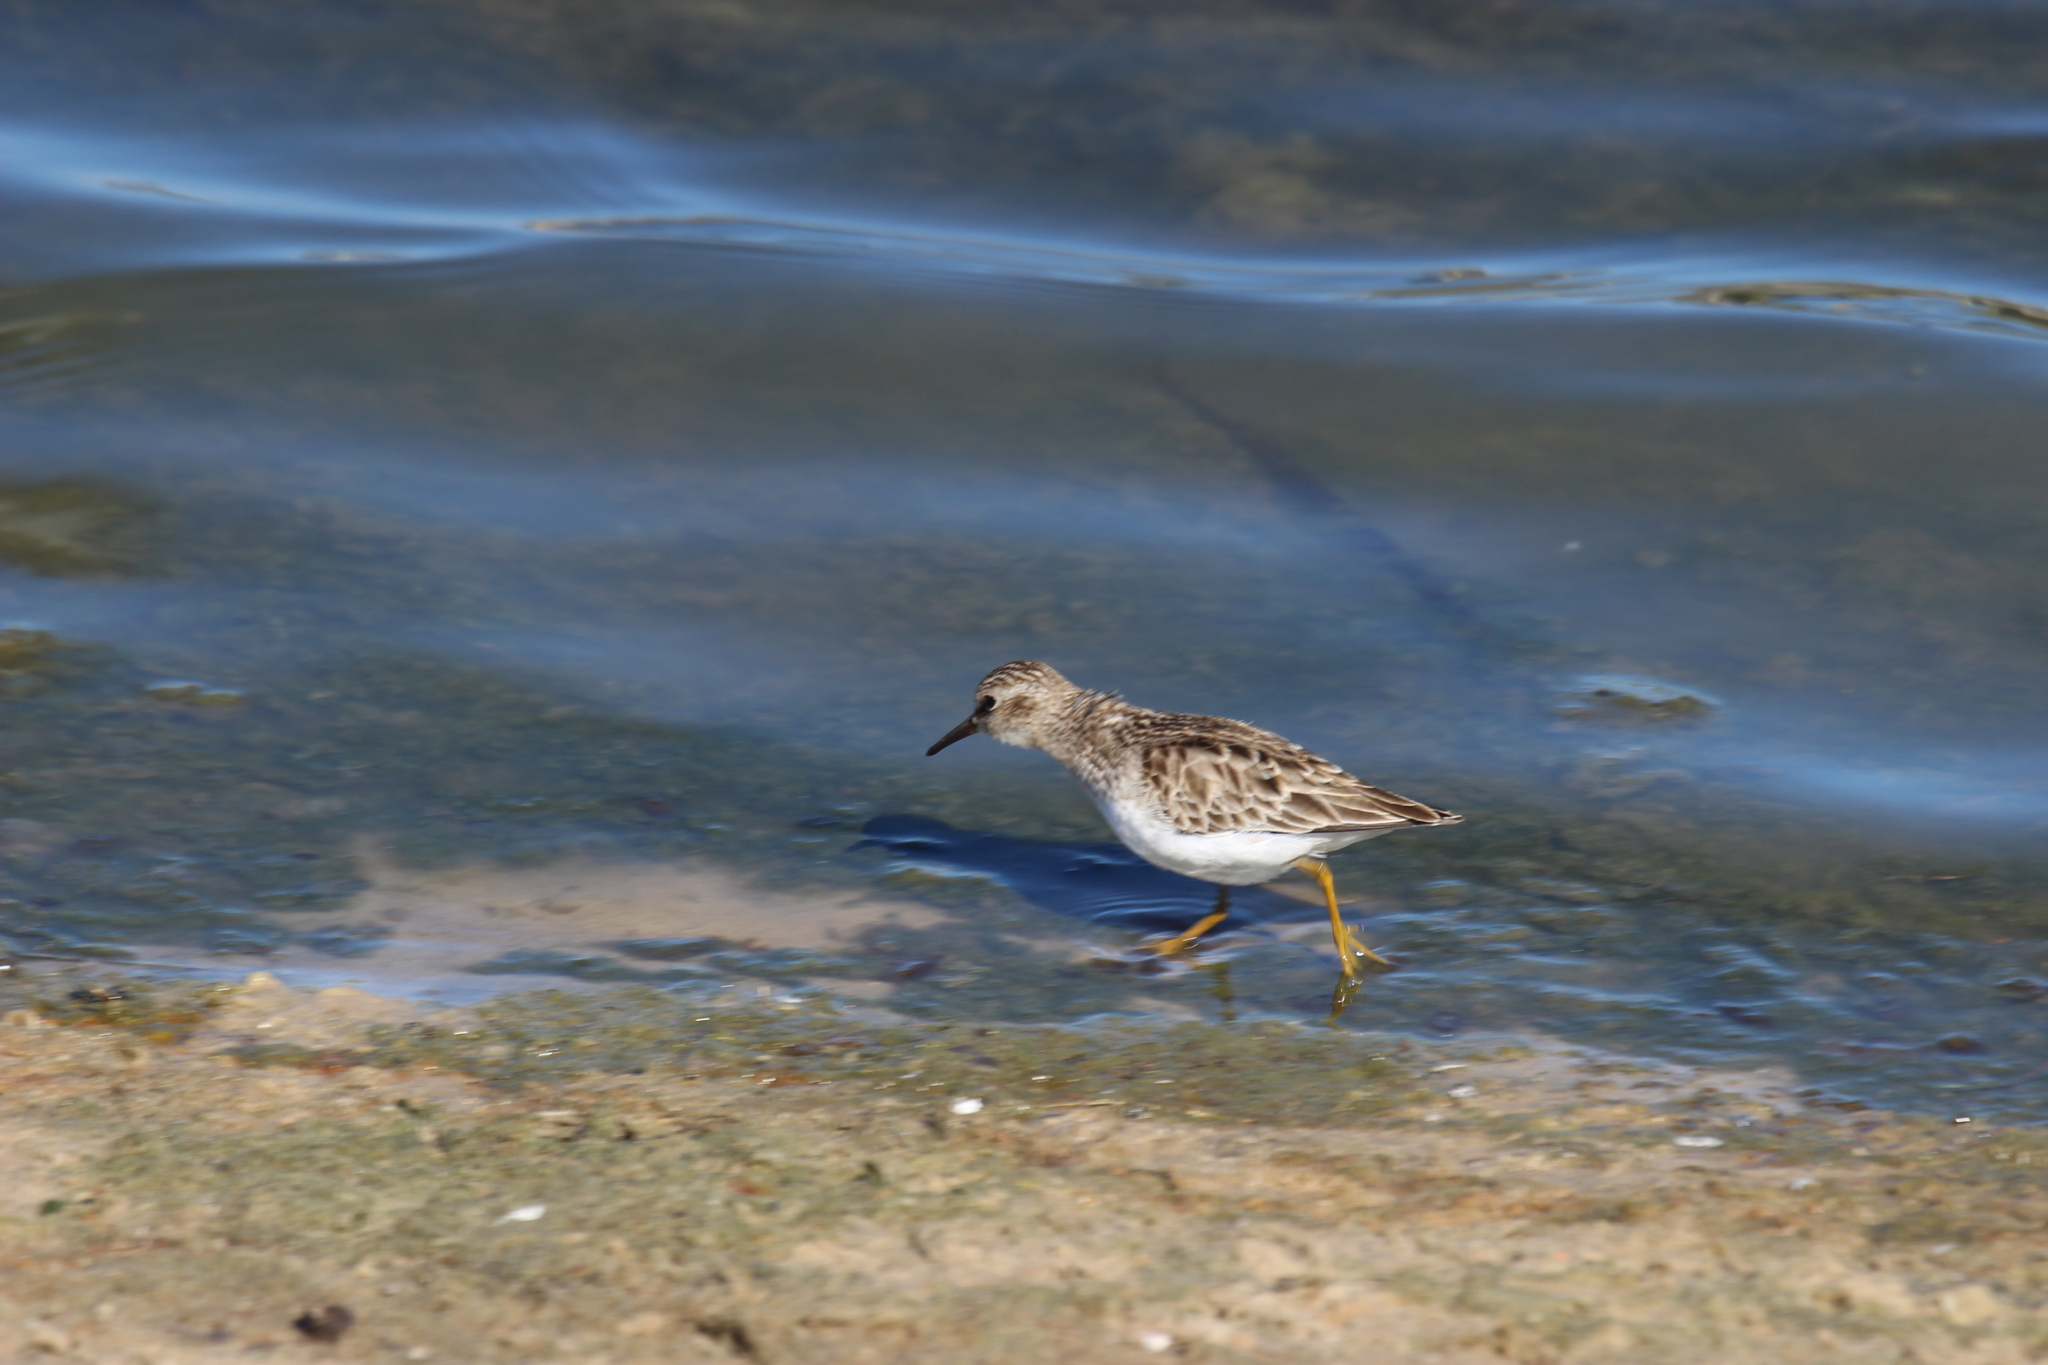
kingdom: Animalia
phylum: Chordata
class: Aves
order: Charadriiformes
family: Scolopacidae
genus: Calidris
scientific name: Calidris minutilla
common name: Least sandpiper
